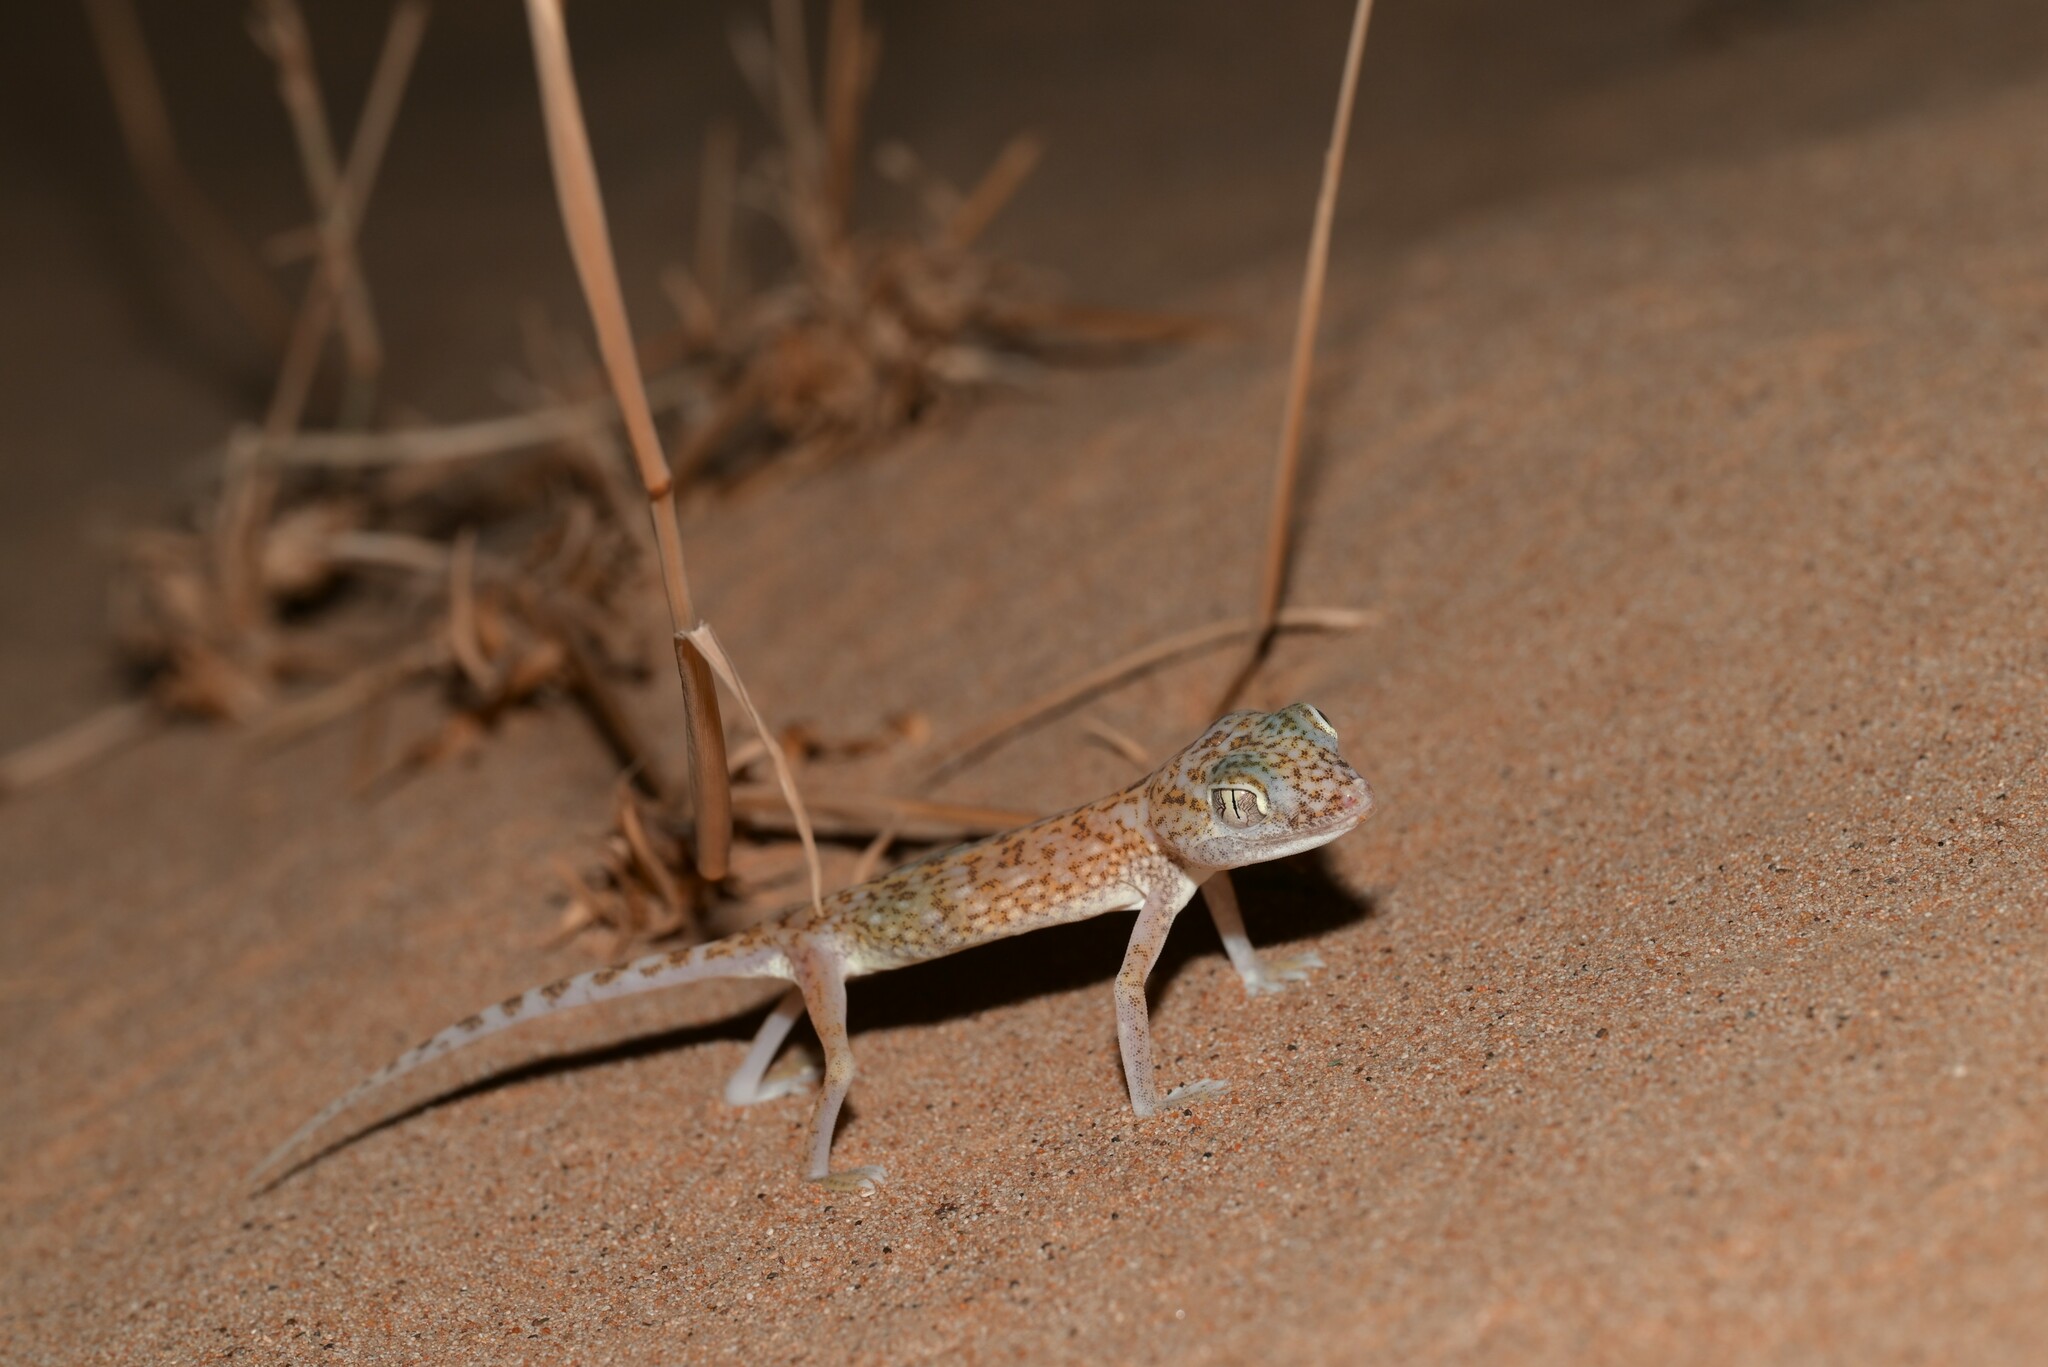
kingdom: Animalia
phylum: Chordata
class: Squamata
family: Gekkonidae
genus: Stenodactylus
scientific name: Stenodactylus doriae
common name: Dune sand gecko
